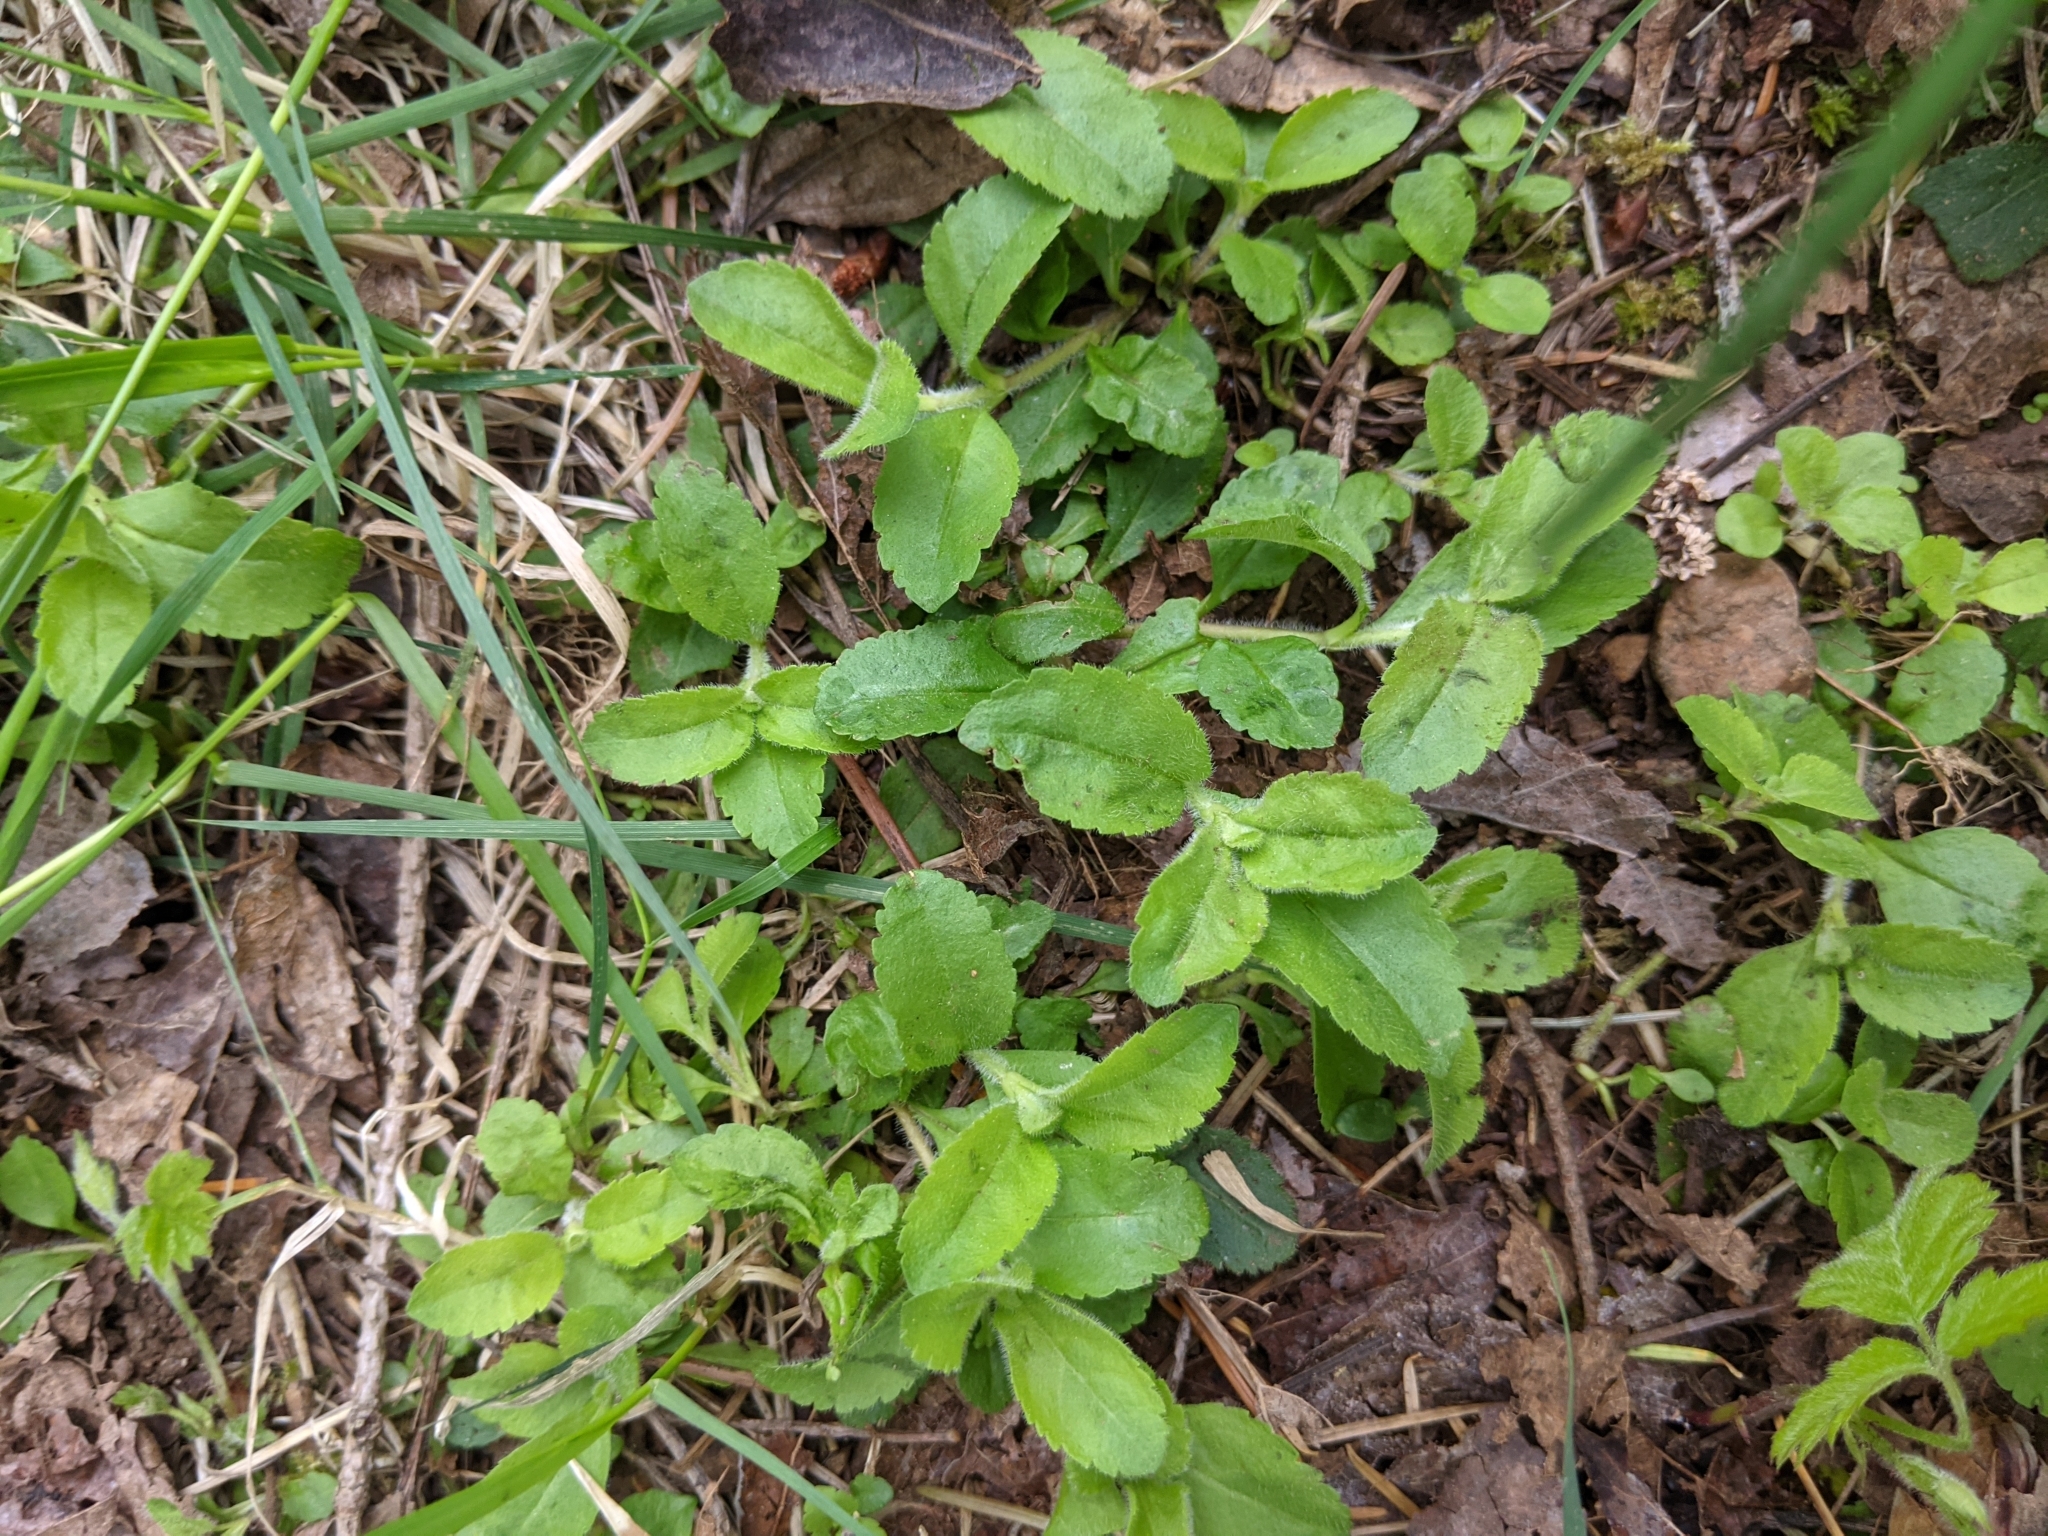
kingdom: Plantae
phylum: Tracheophyta
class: Magnoliopsida
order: Lamiales
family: Plantaginaceae
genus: Veronica
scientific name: Veronica officinalis
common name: Common speedwell
